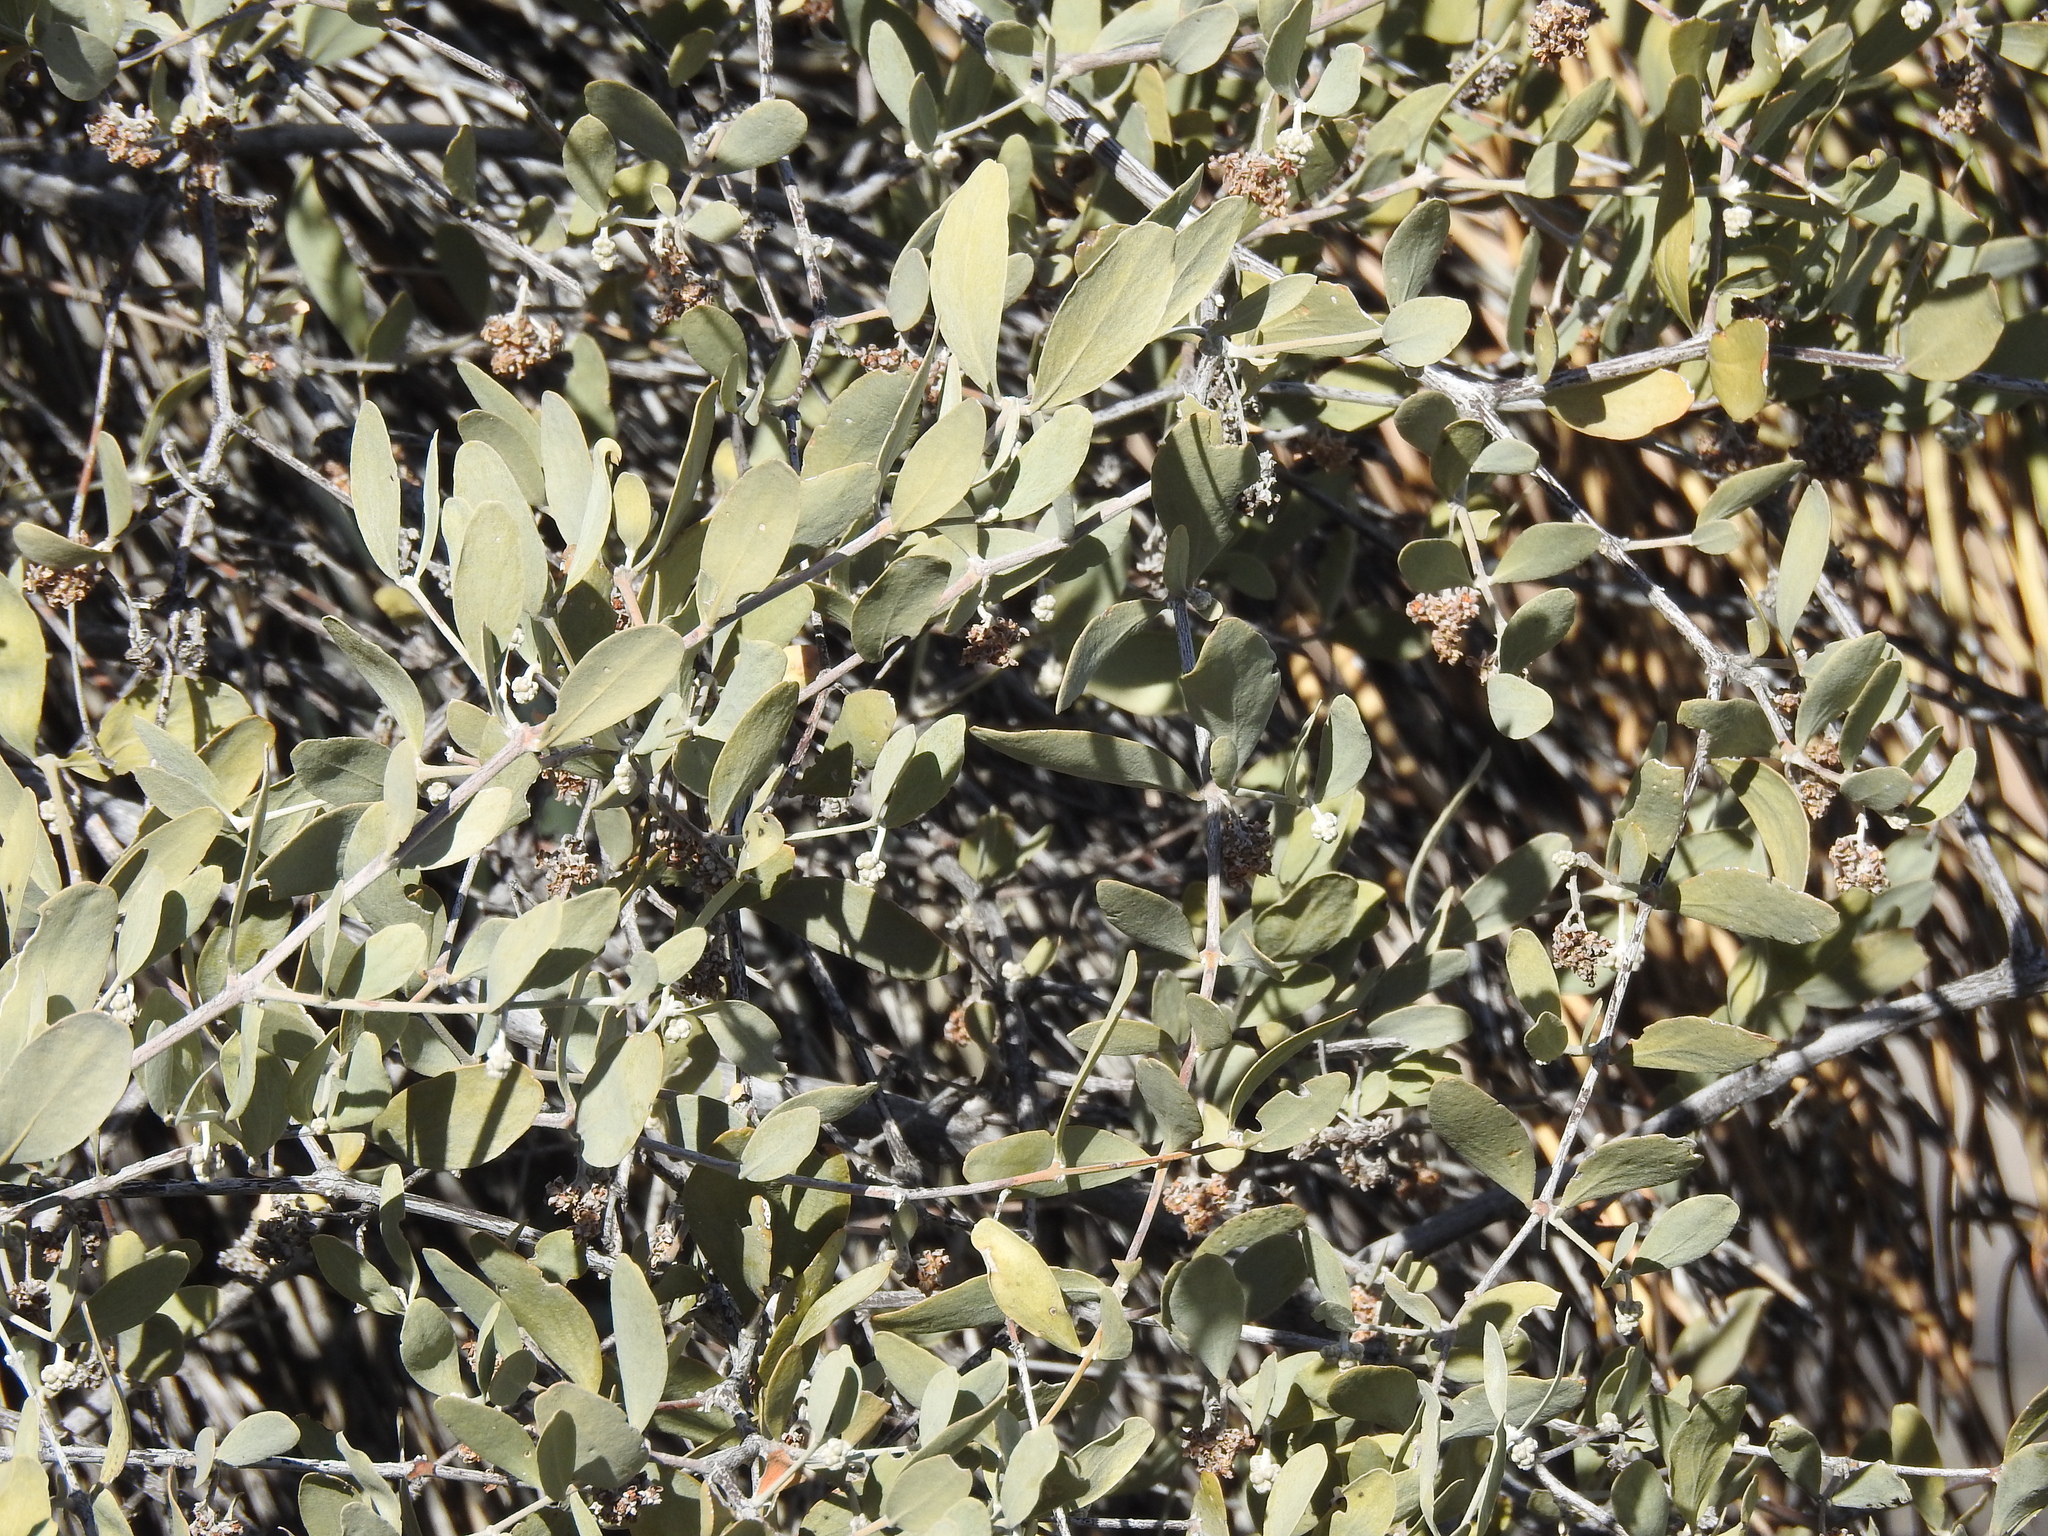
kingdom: Plantae
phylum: Tracheophyta
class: Magnoliopsida
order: Caryophyllales
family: Simmondsiaceae
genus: Simmondsia
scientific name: Simmondsia chinensis
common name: Jojoba
